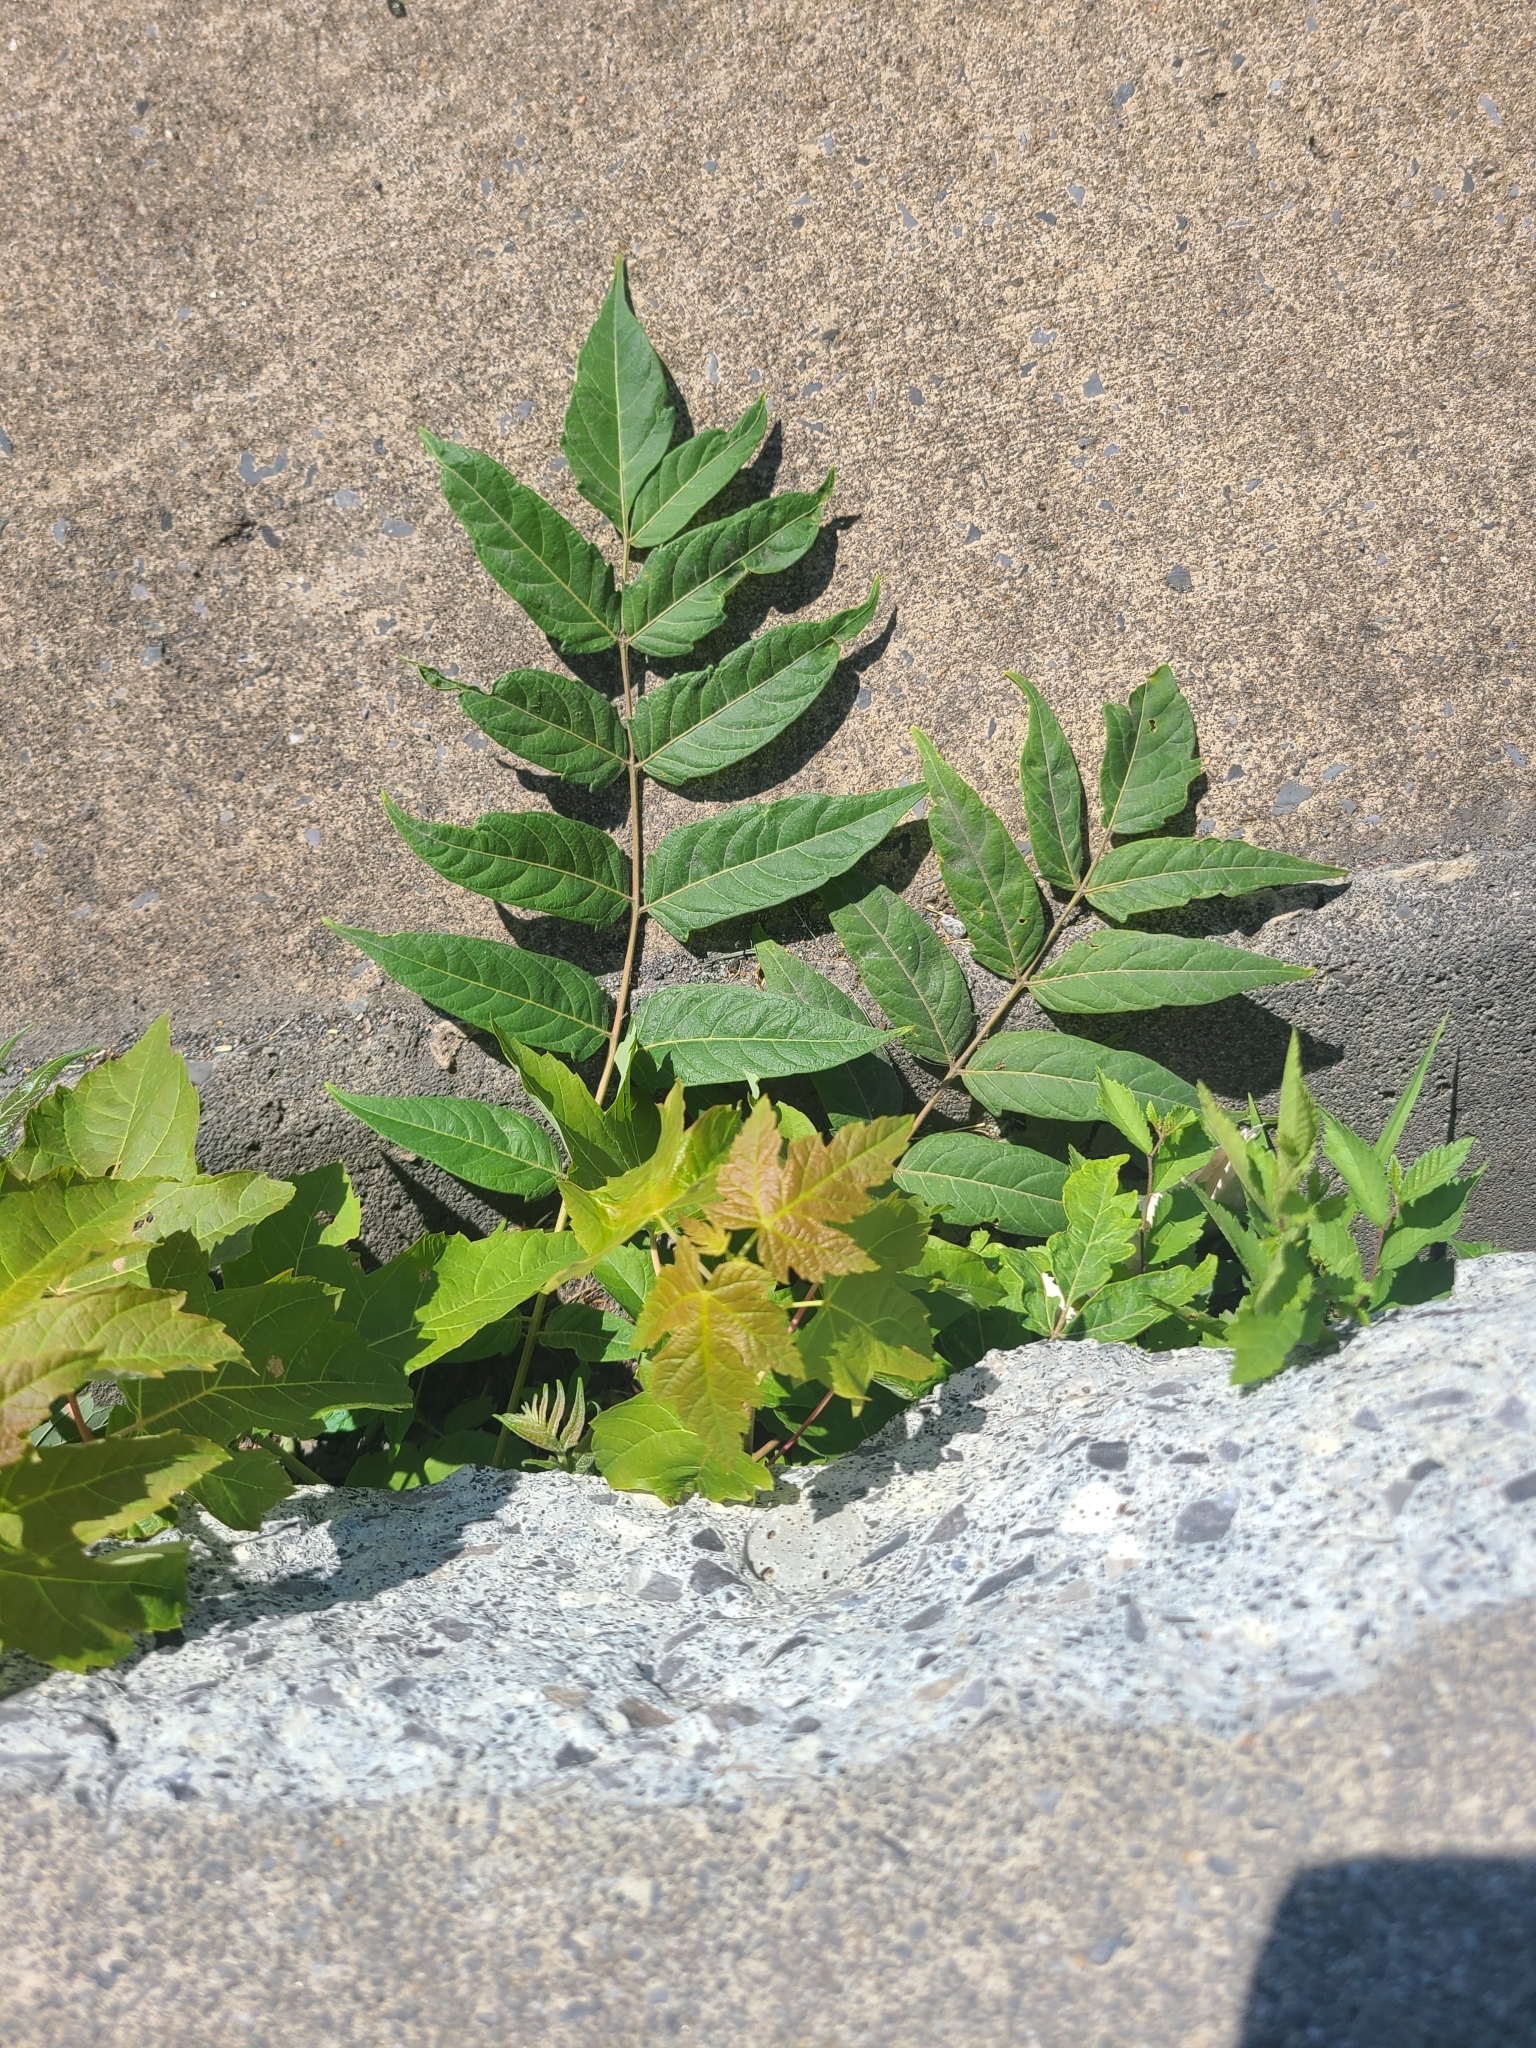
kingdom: Plantae
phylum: Tracheophyta
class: Magnoliopsida
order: Sapindales
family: Simaroubaceae
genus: Ailanthus
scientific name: Ailanthus altissima
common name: Tree-of-heaven
